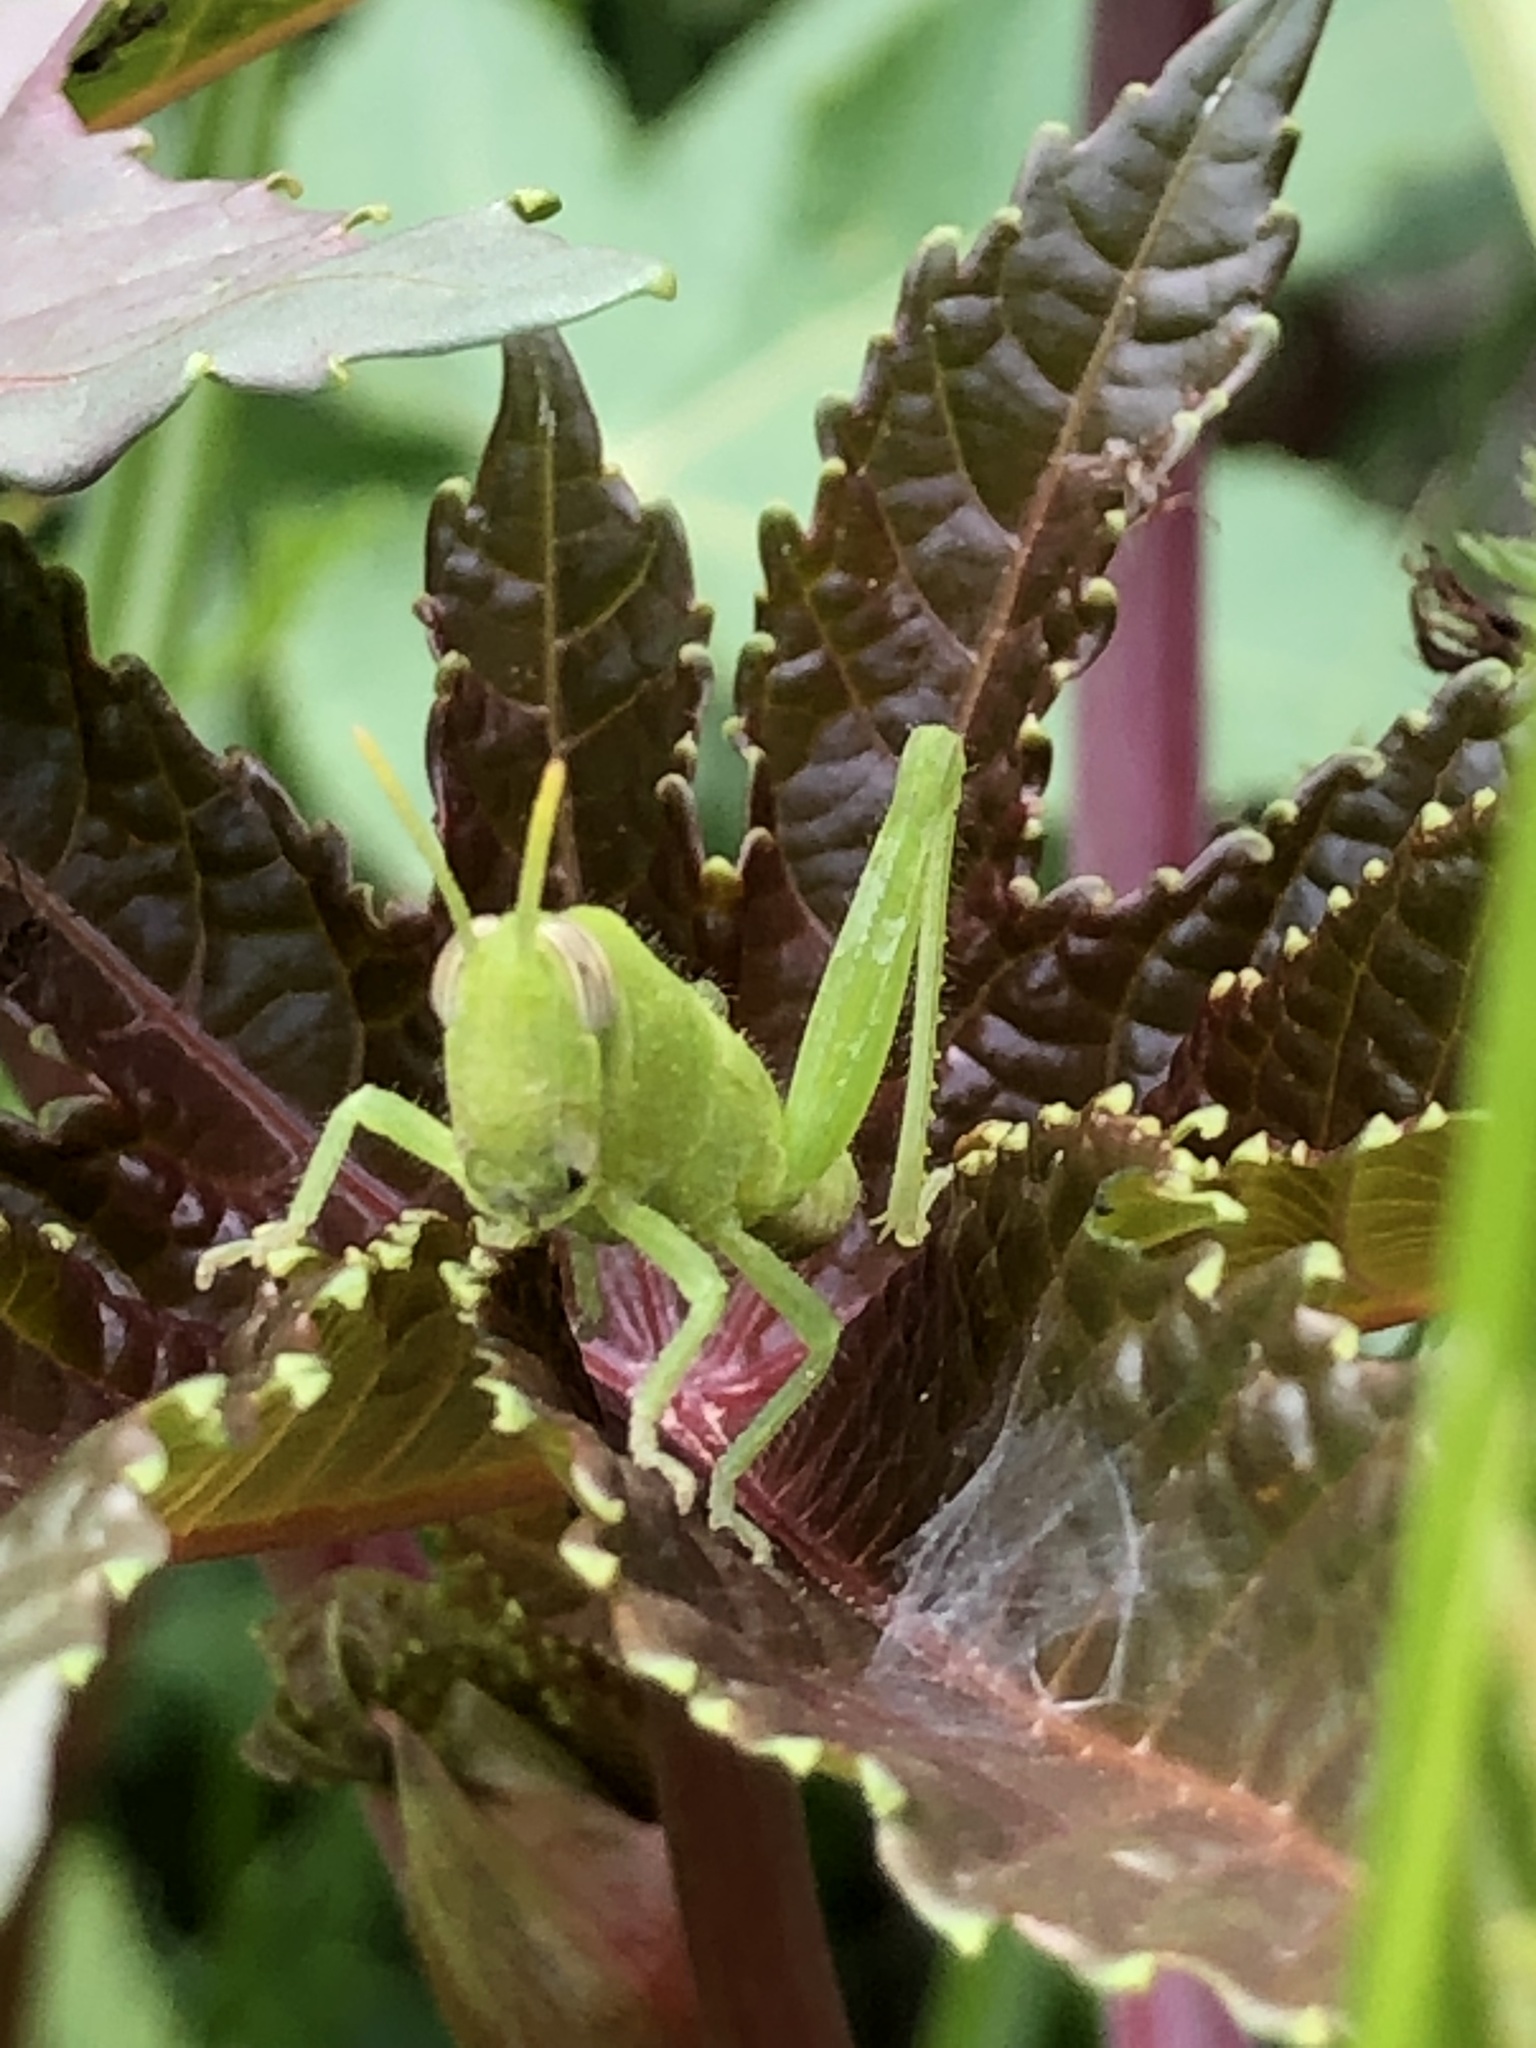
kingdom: Animalia
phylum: Arthropoda
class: Insecta
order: Orthoptera
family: Acrididae
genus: Schistocerca
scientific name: Schistocerca nitens
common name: Vagrant grasshopper
